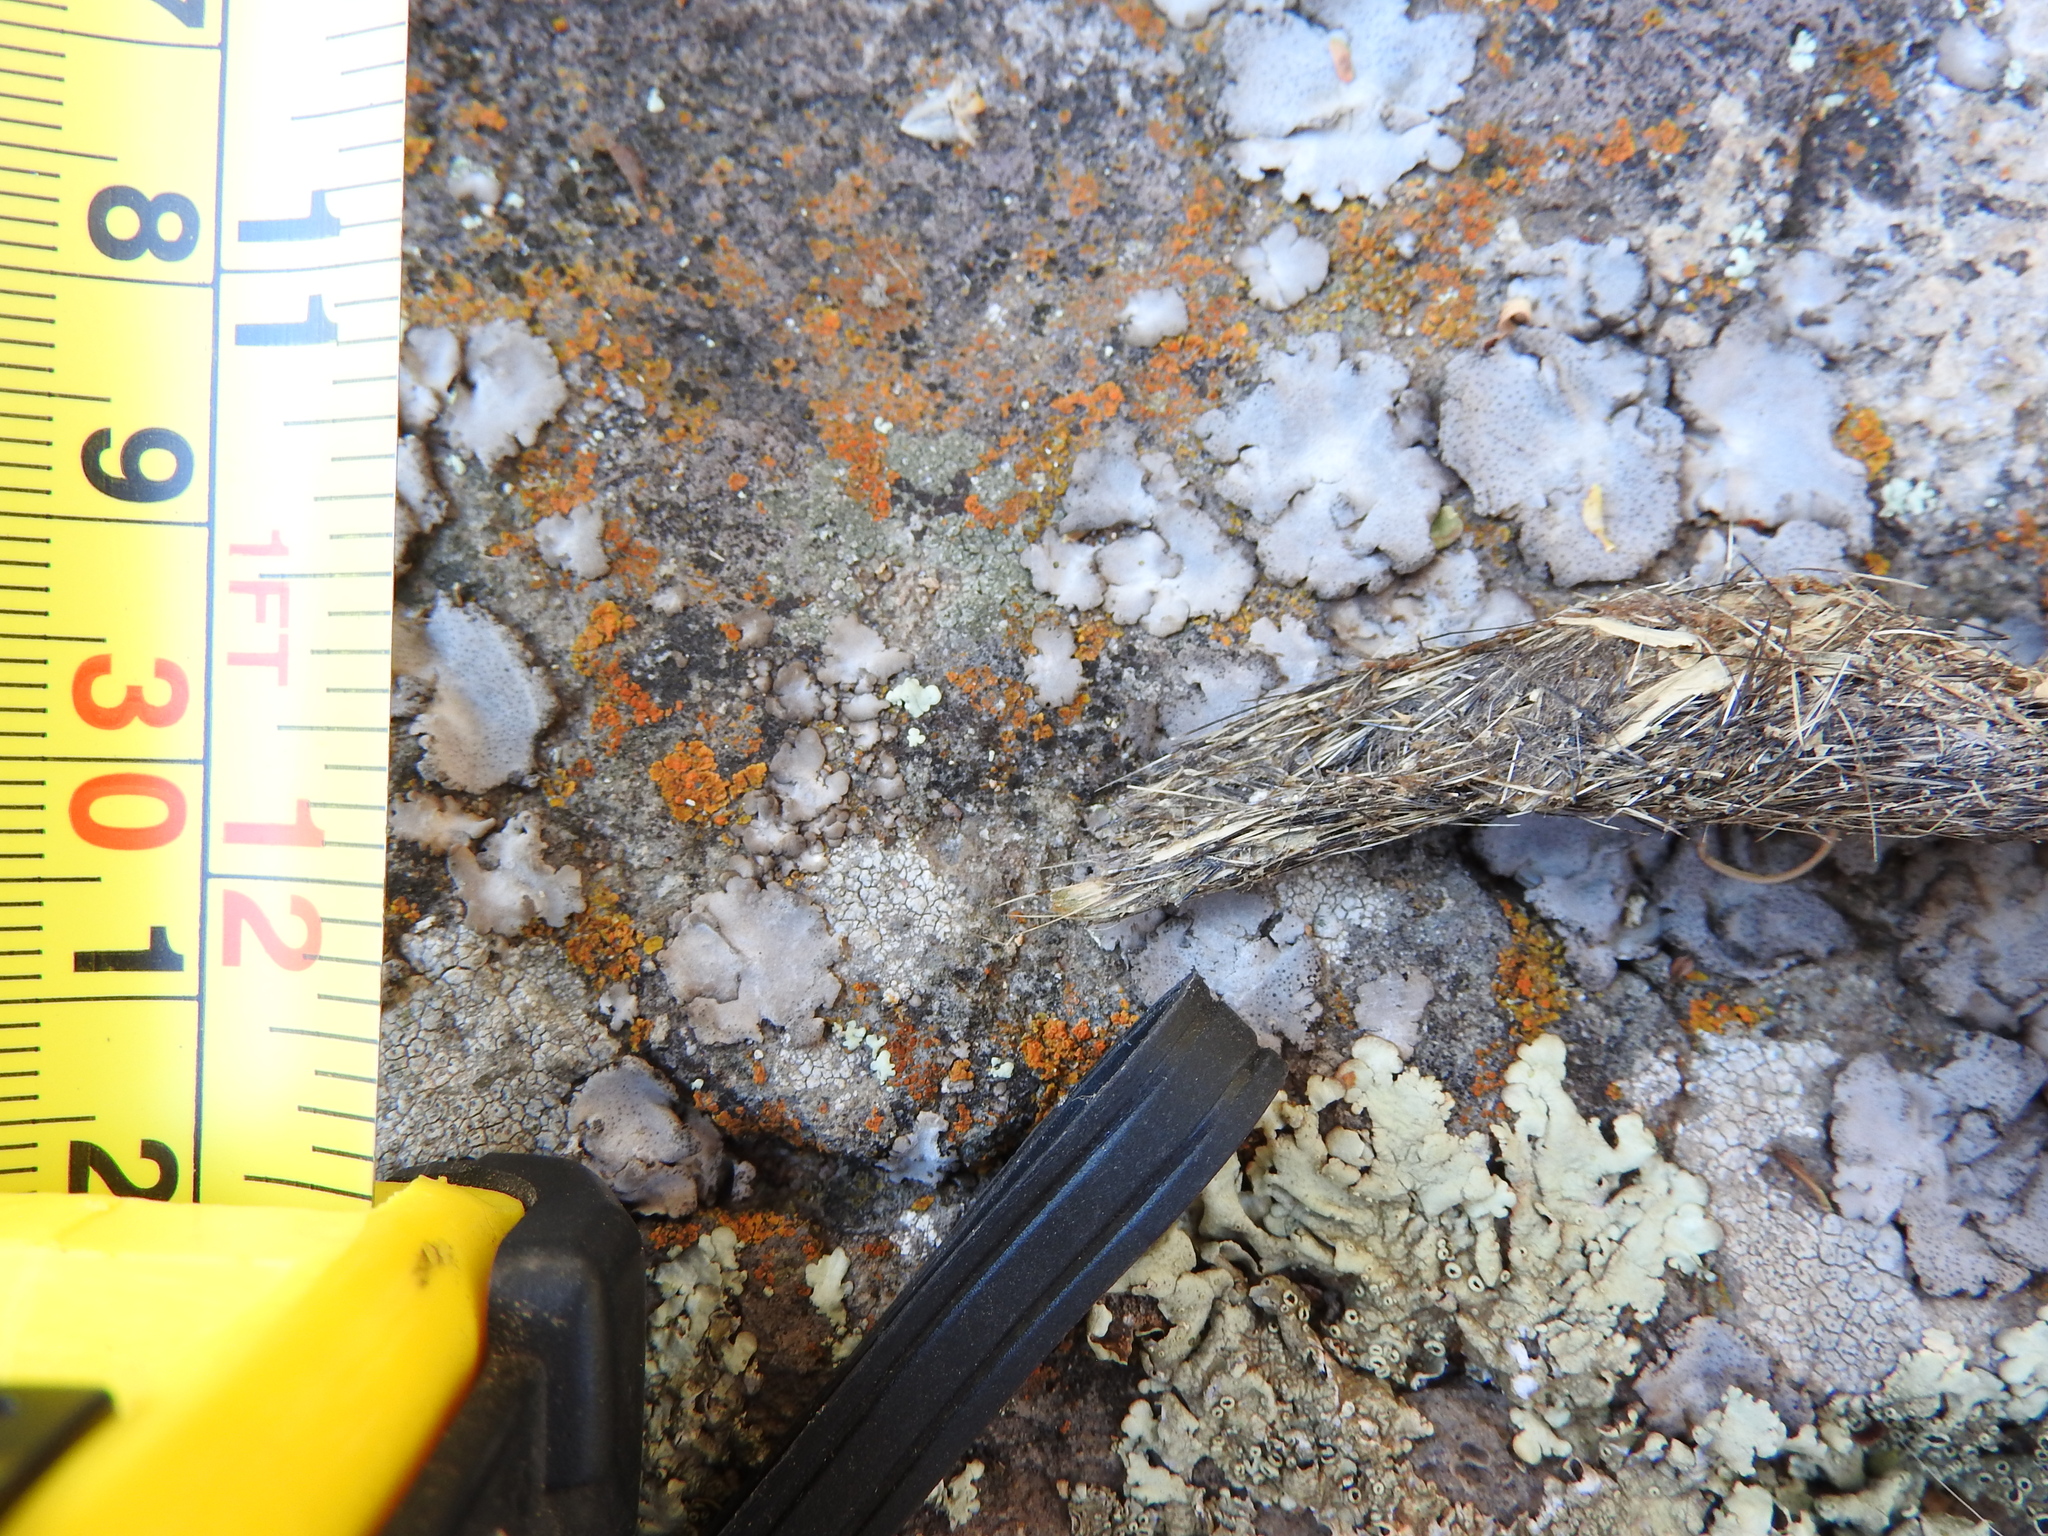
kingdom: Animalia
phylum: Chordata
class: Mammalia
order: Carnivora
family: Canidae
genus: Canis
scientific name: Canis latrans
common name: Coyote
